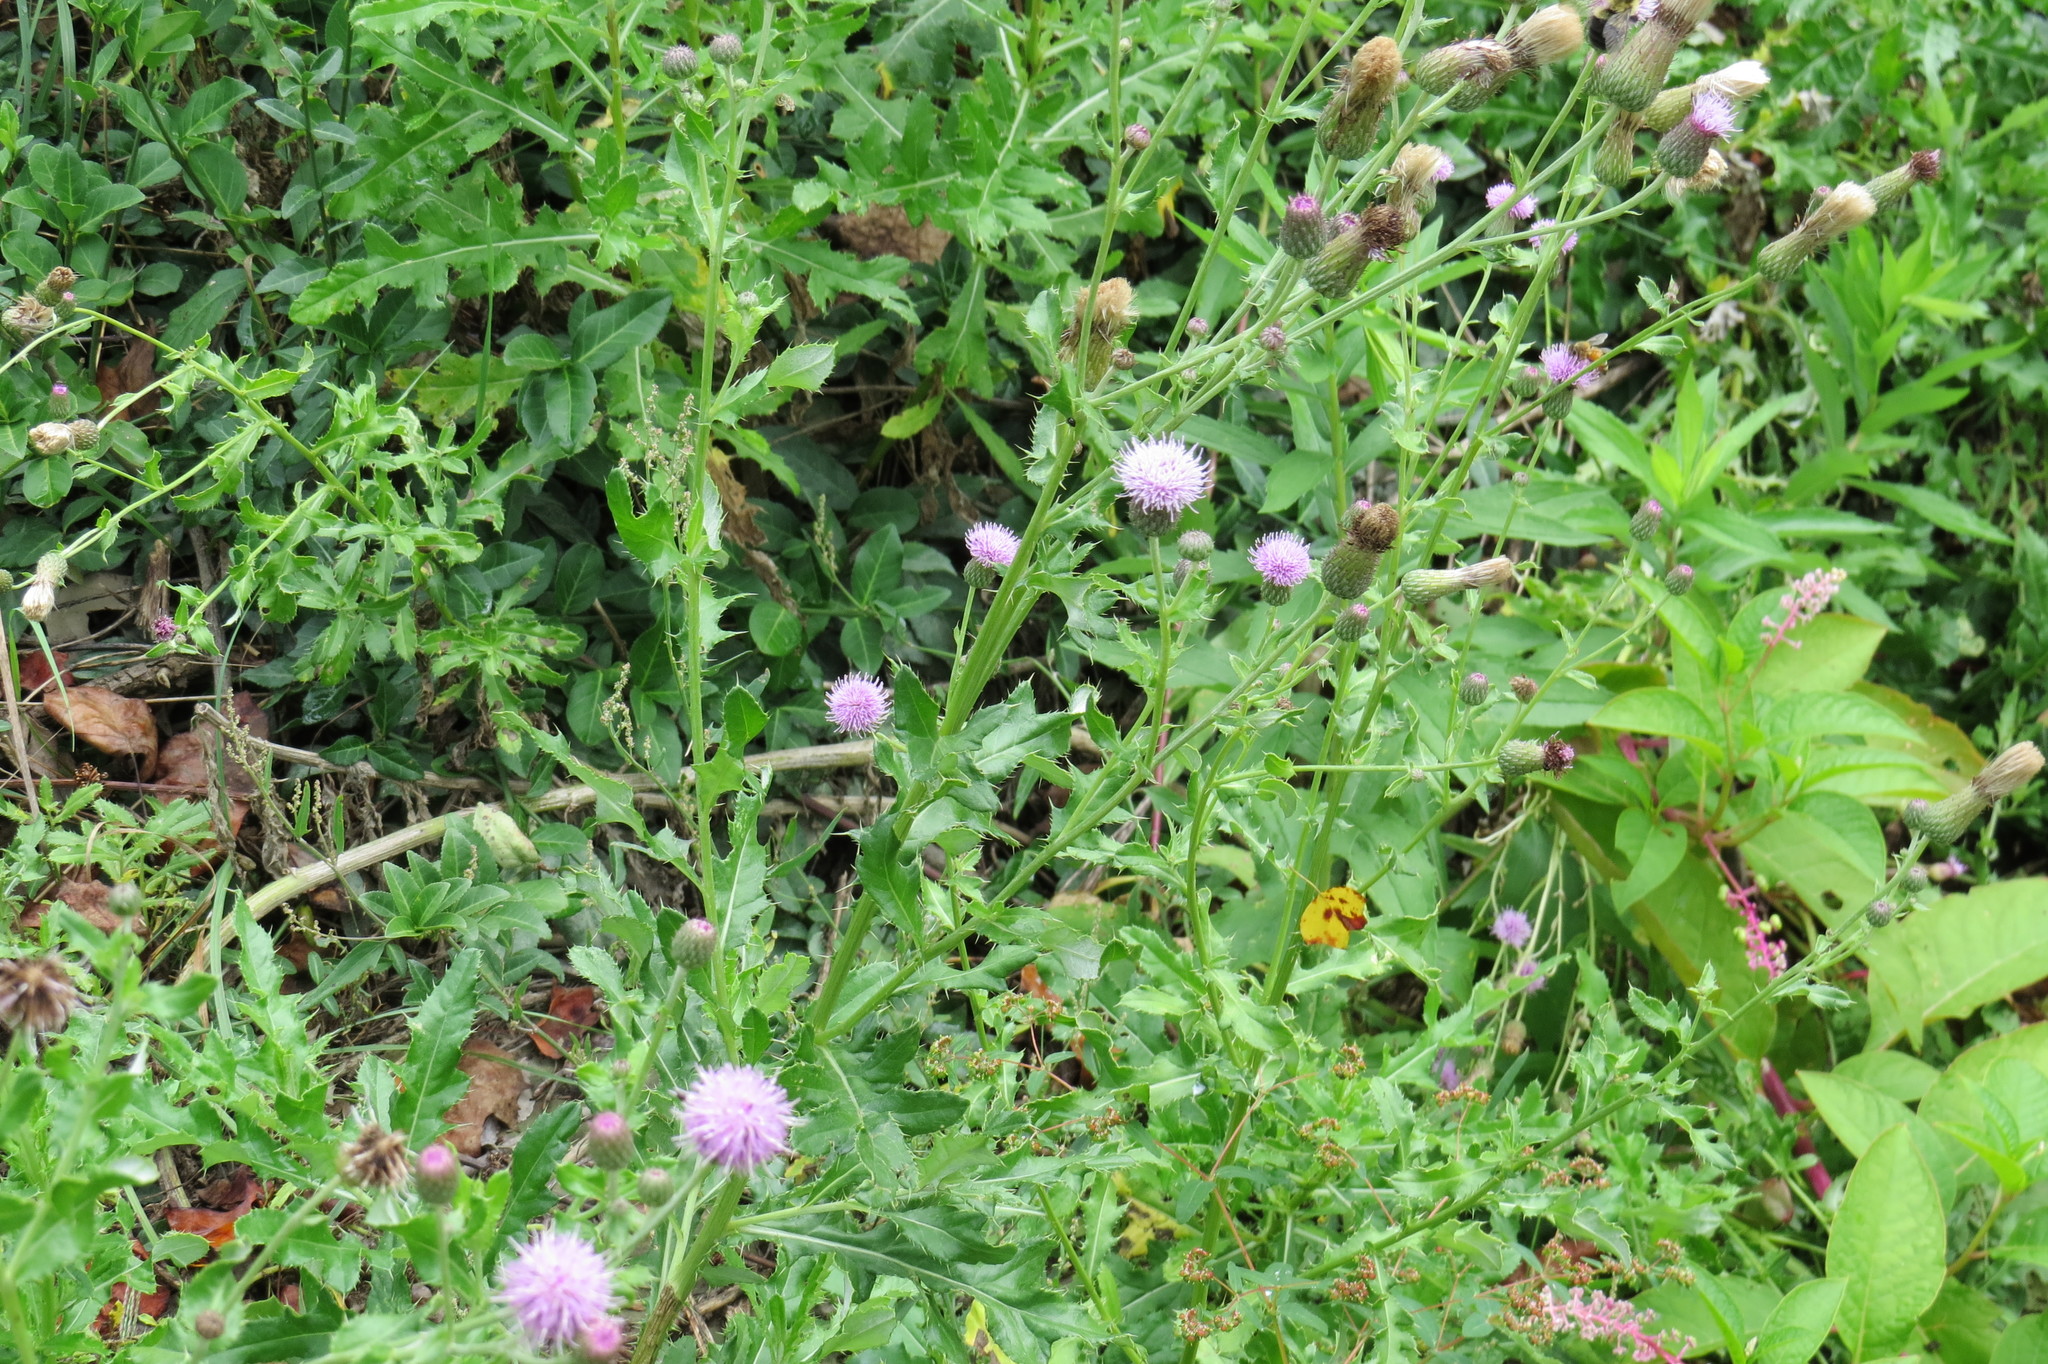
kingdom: Plantae
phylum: Tracheophyta
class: Magnoliopsida
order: Asterales
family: Asteraceae
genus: Cirsium
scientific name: Cirsium arvense
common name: Creeping thistle
